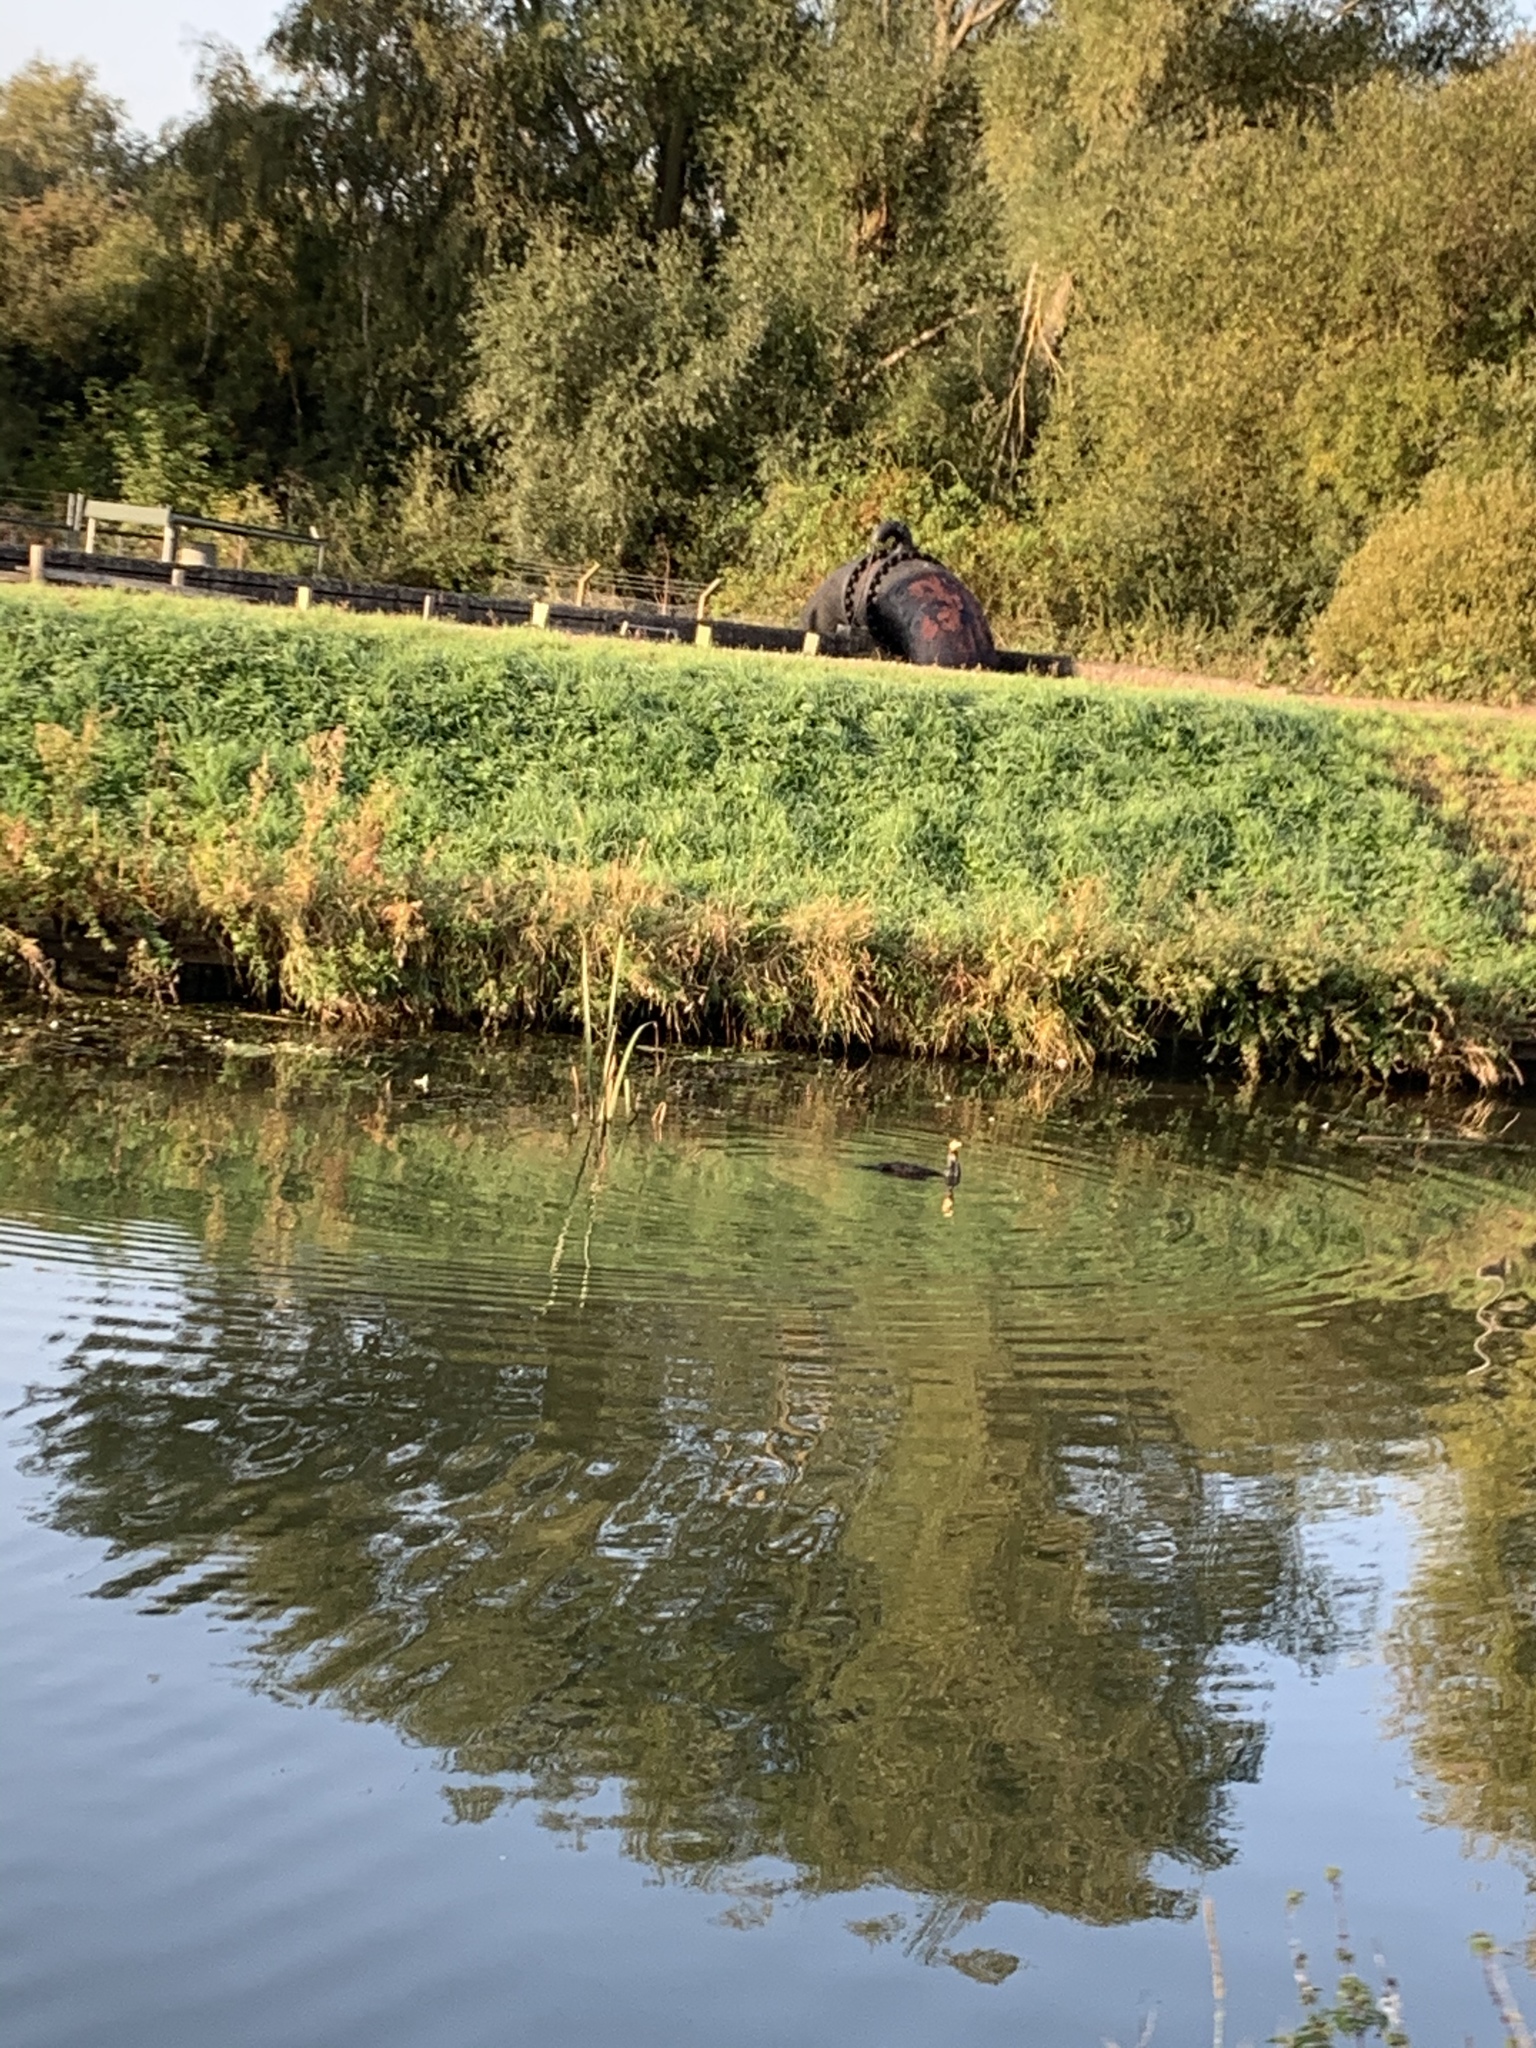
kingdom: Animalia
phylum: Chordata
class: Aves
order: Suliformes
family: Phalacrocoracidae
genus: Phalacrocorax
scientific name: Phalacrocorax carbo
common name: Great cormorant
